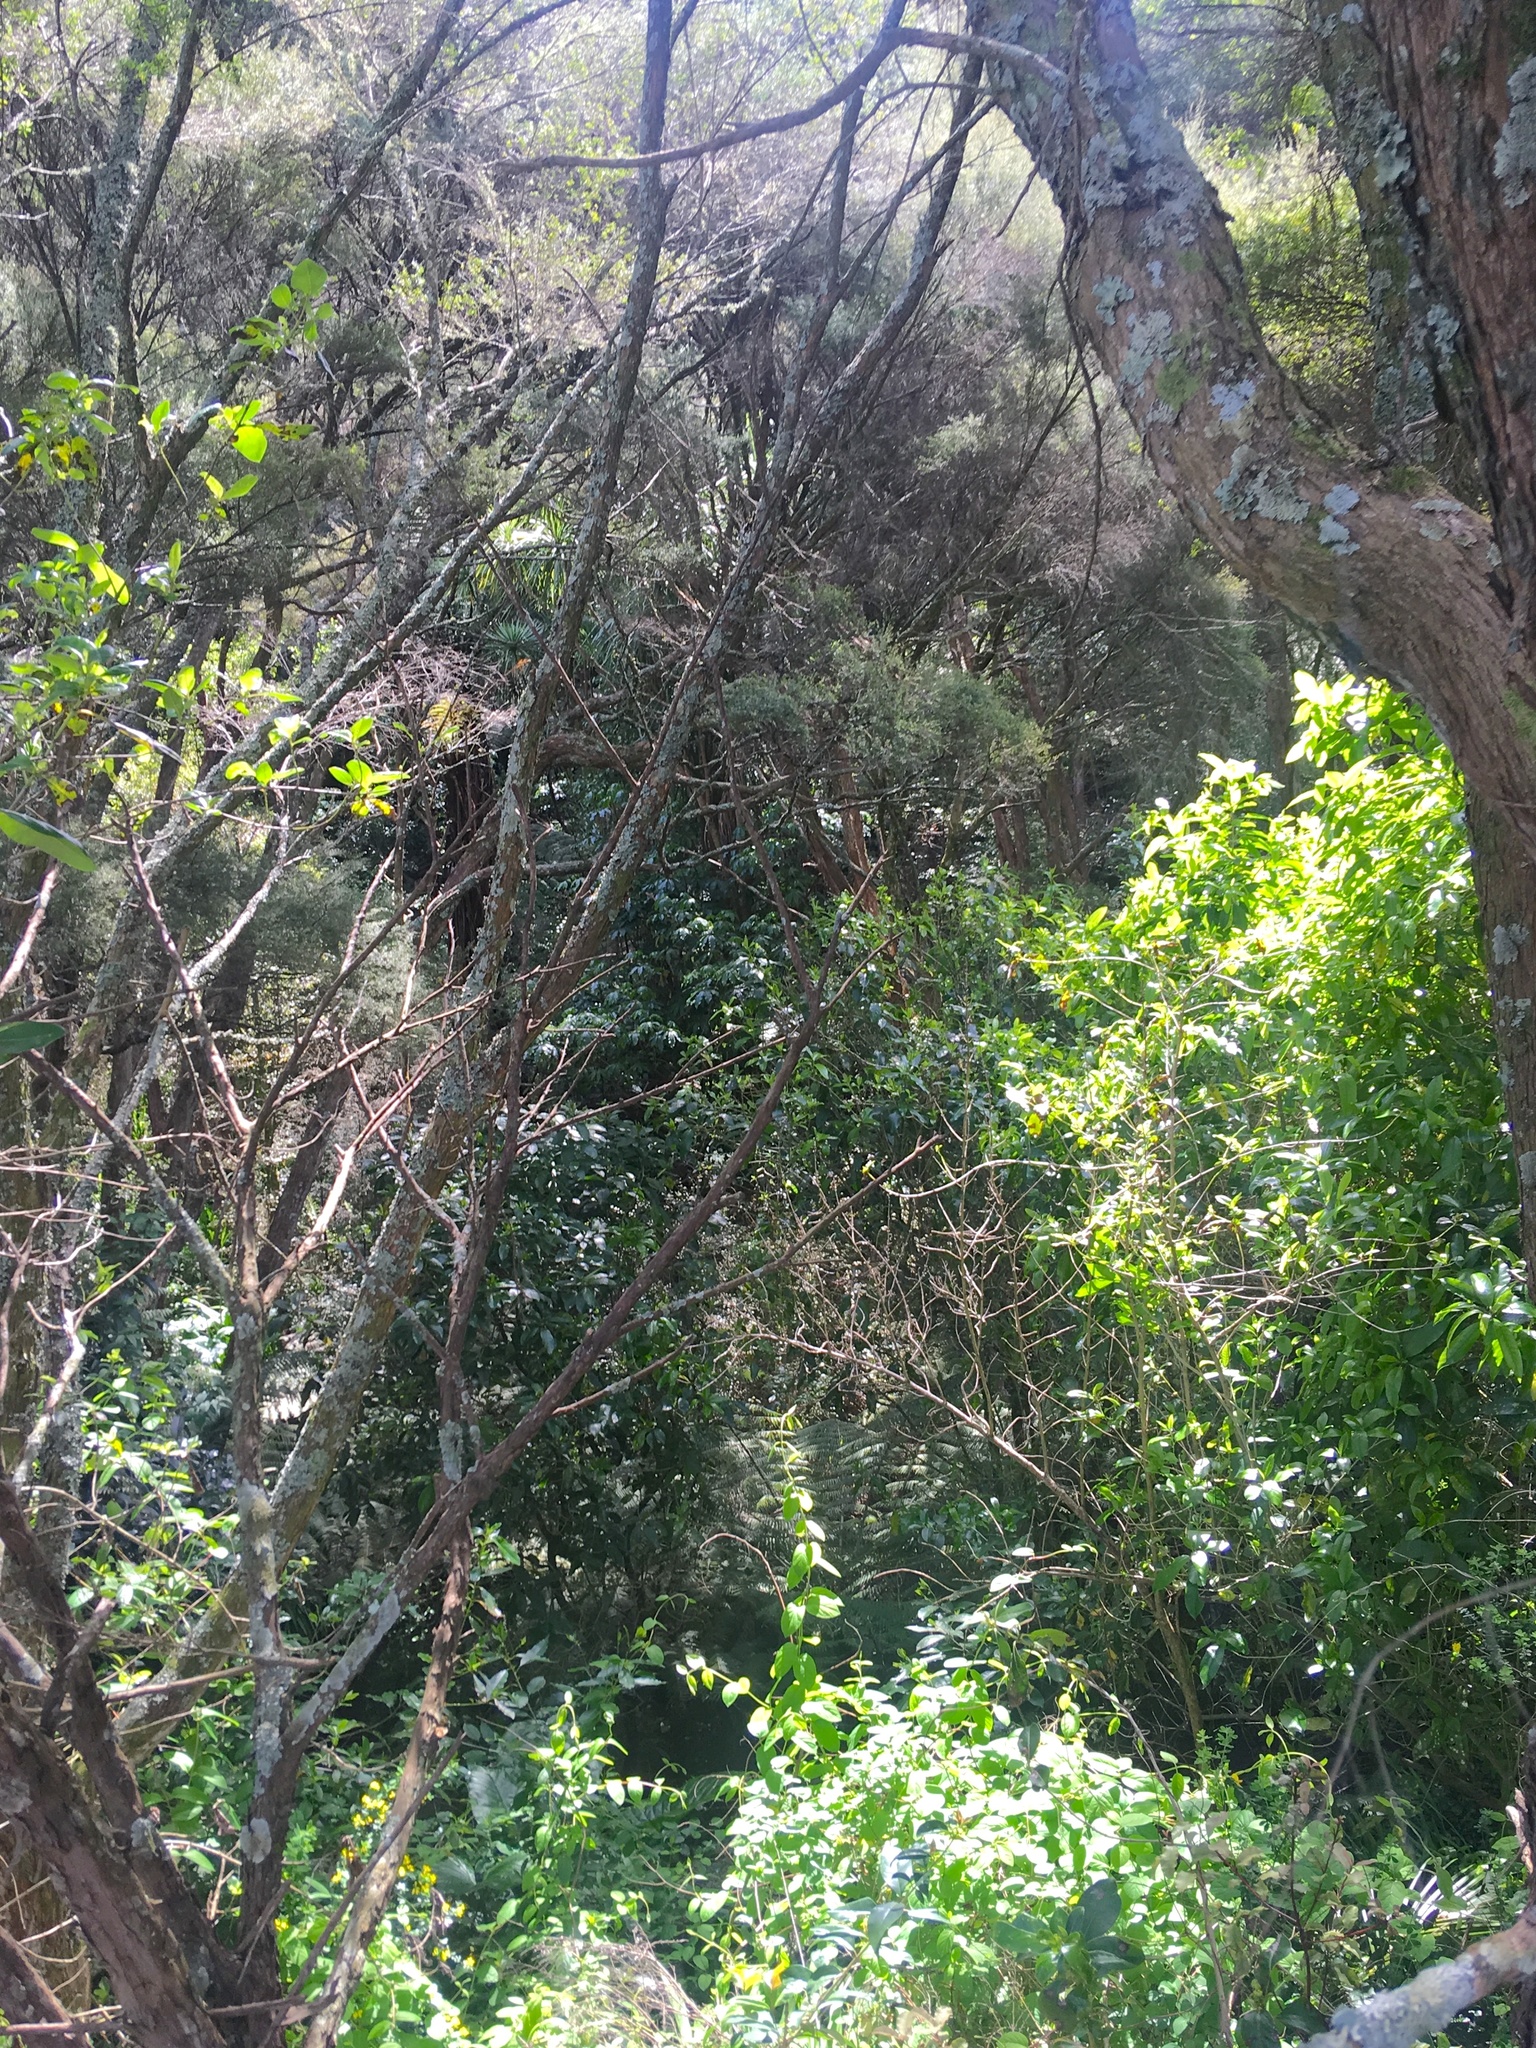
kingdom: Plantae
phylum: Tracheophyta
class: Magnoliopsida
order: Dipsacales
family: Caprifoliaceae
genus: Lonicera
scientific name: Lonicera japonica
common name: Japanese honeysuckle
